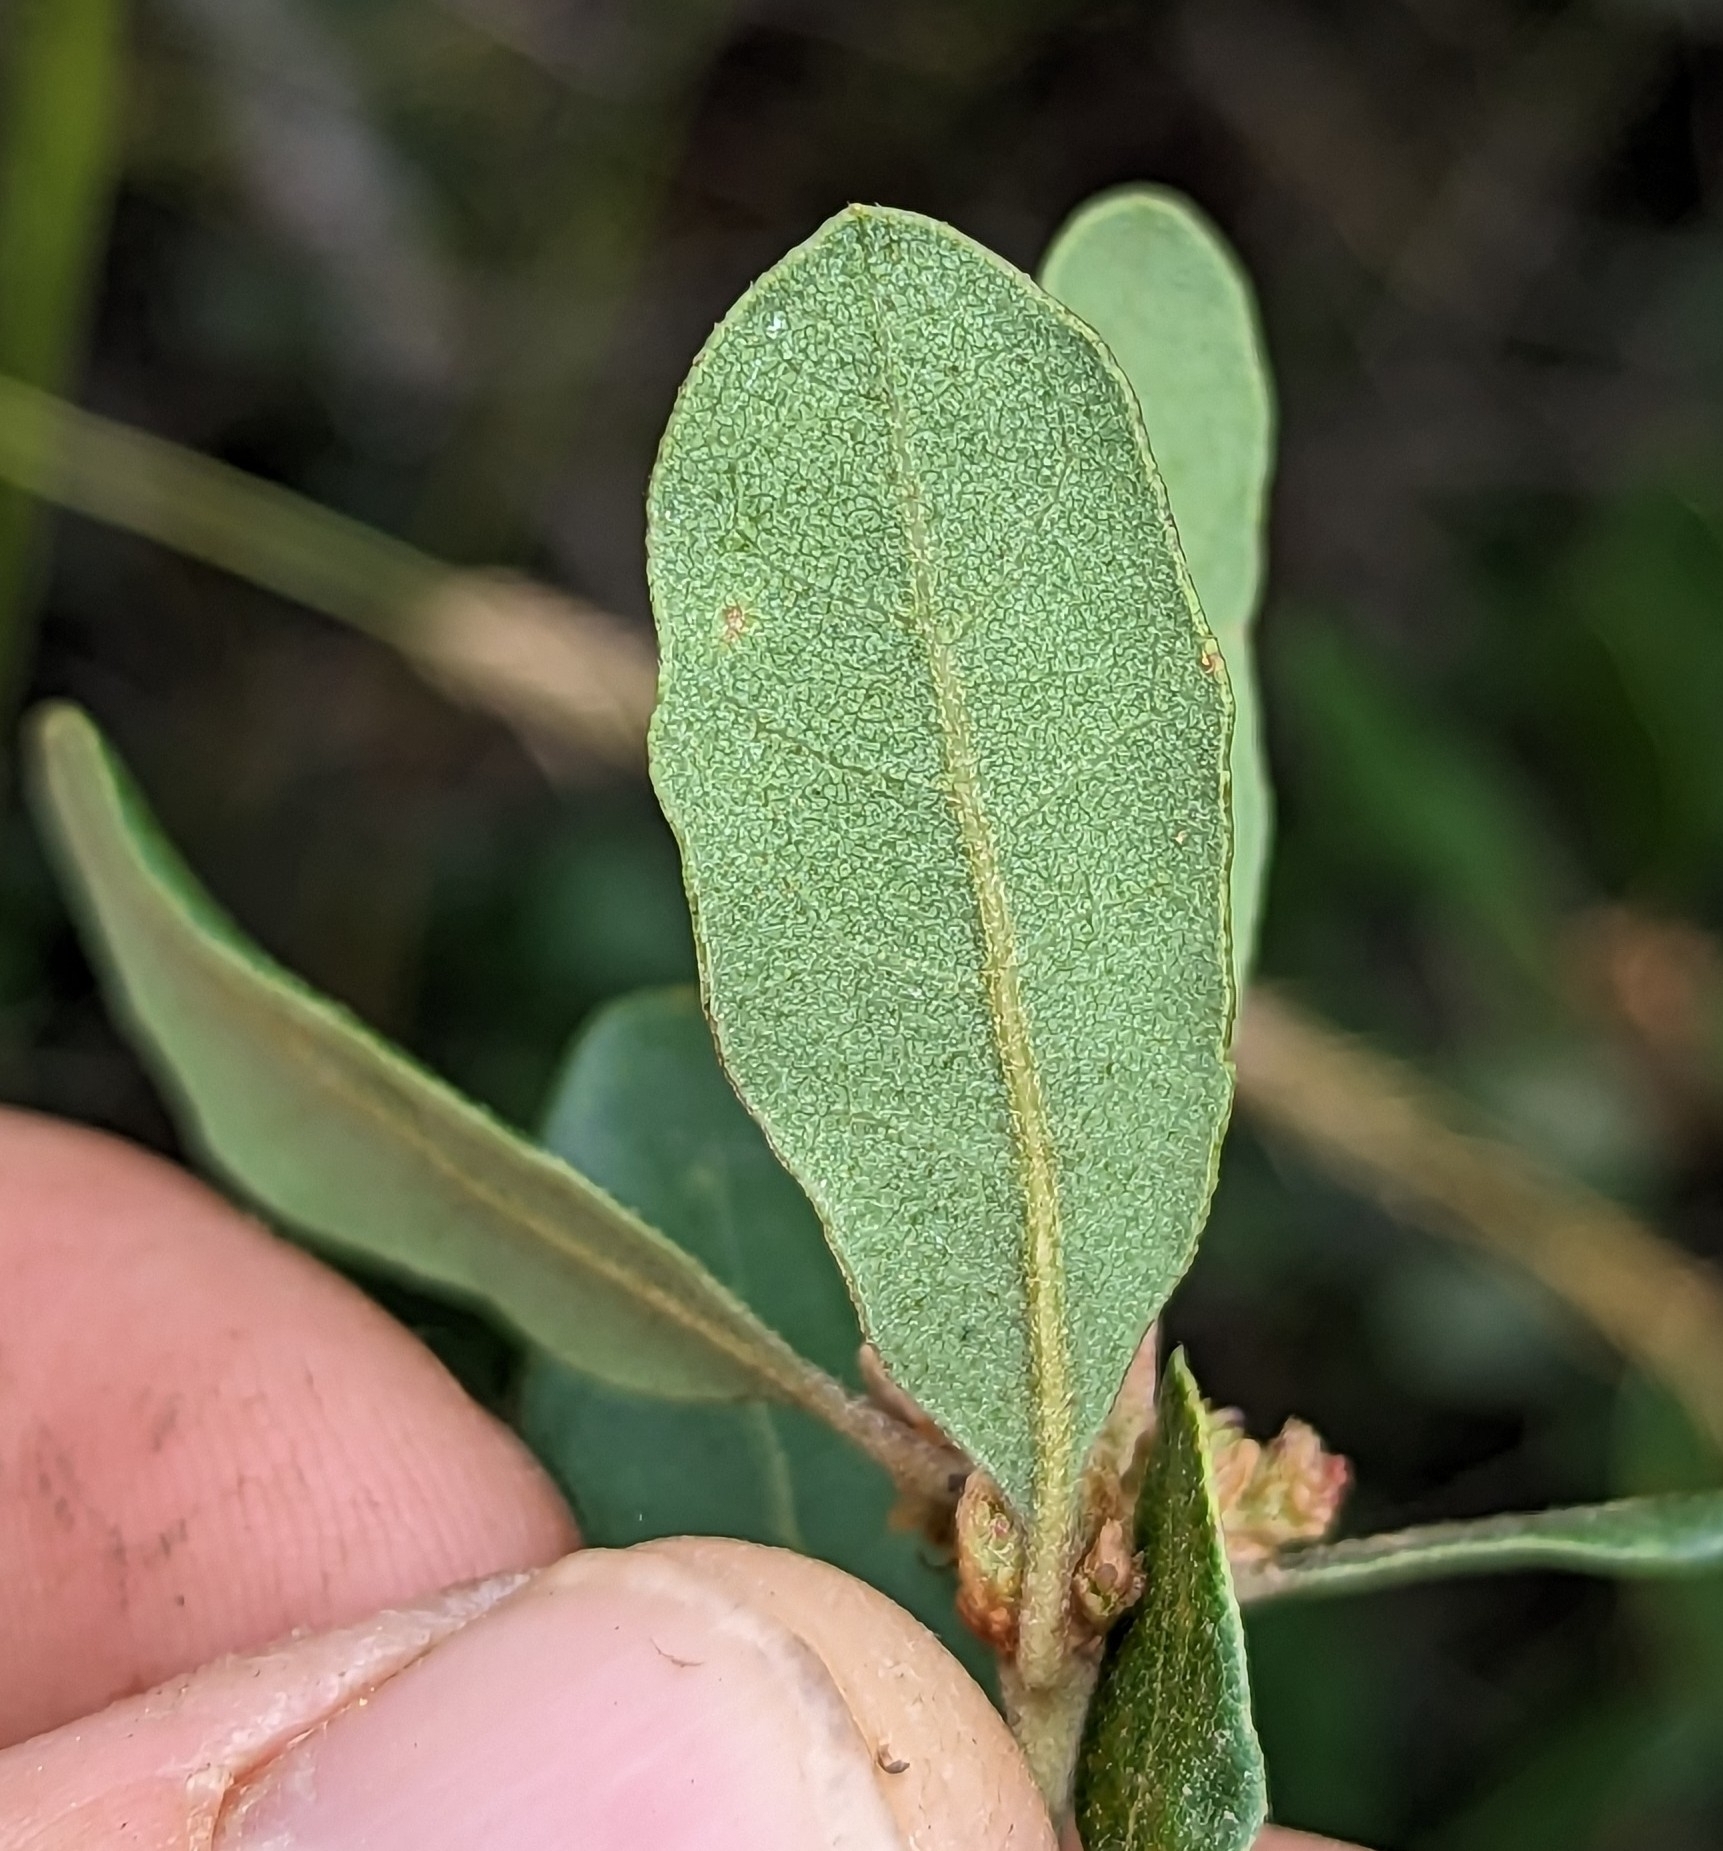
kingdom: Plantae
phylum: Tracheophyta
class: Magnoliopsida
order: Fagales
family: Fagaceae
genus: Quercus
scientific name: Quercus acutidens
